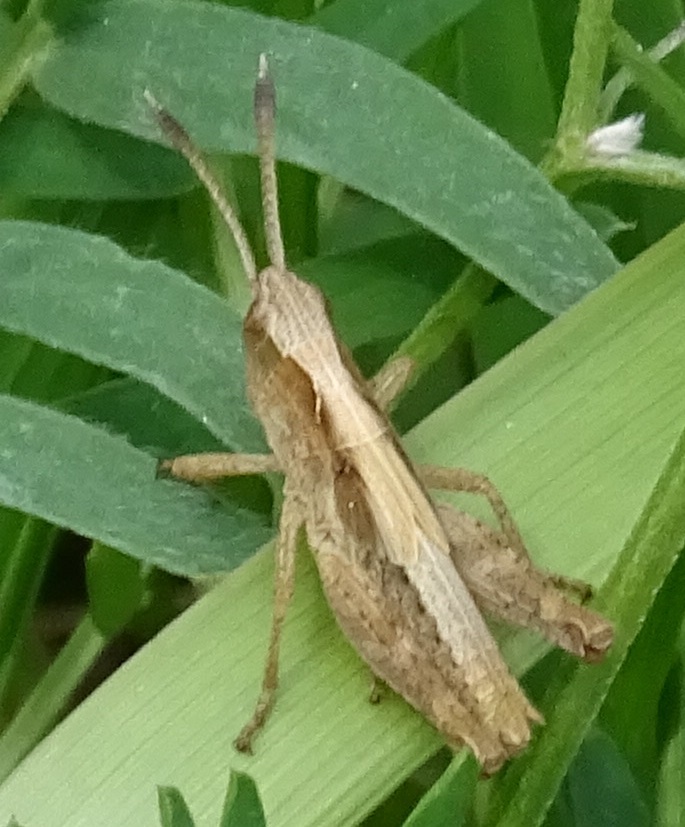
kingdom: Animalia
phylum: Arthropoda
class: Insecta
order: Orthoptera
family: Acrididae
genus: Gomphocerippus
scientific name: Gomphocerippus rufus
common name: Rufous grasshopper
